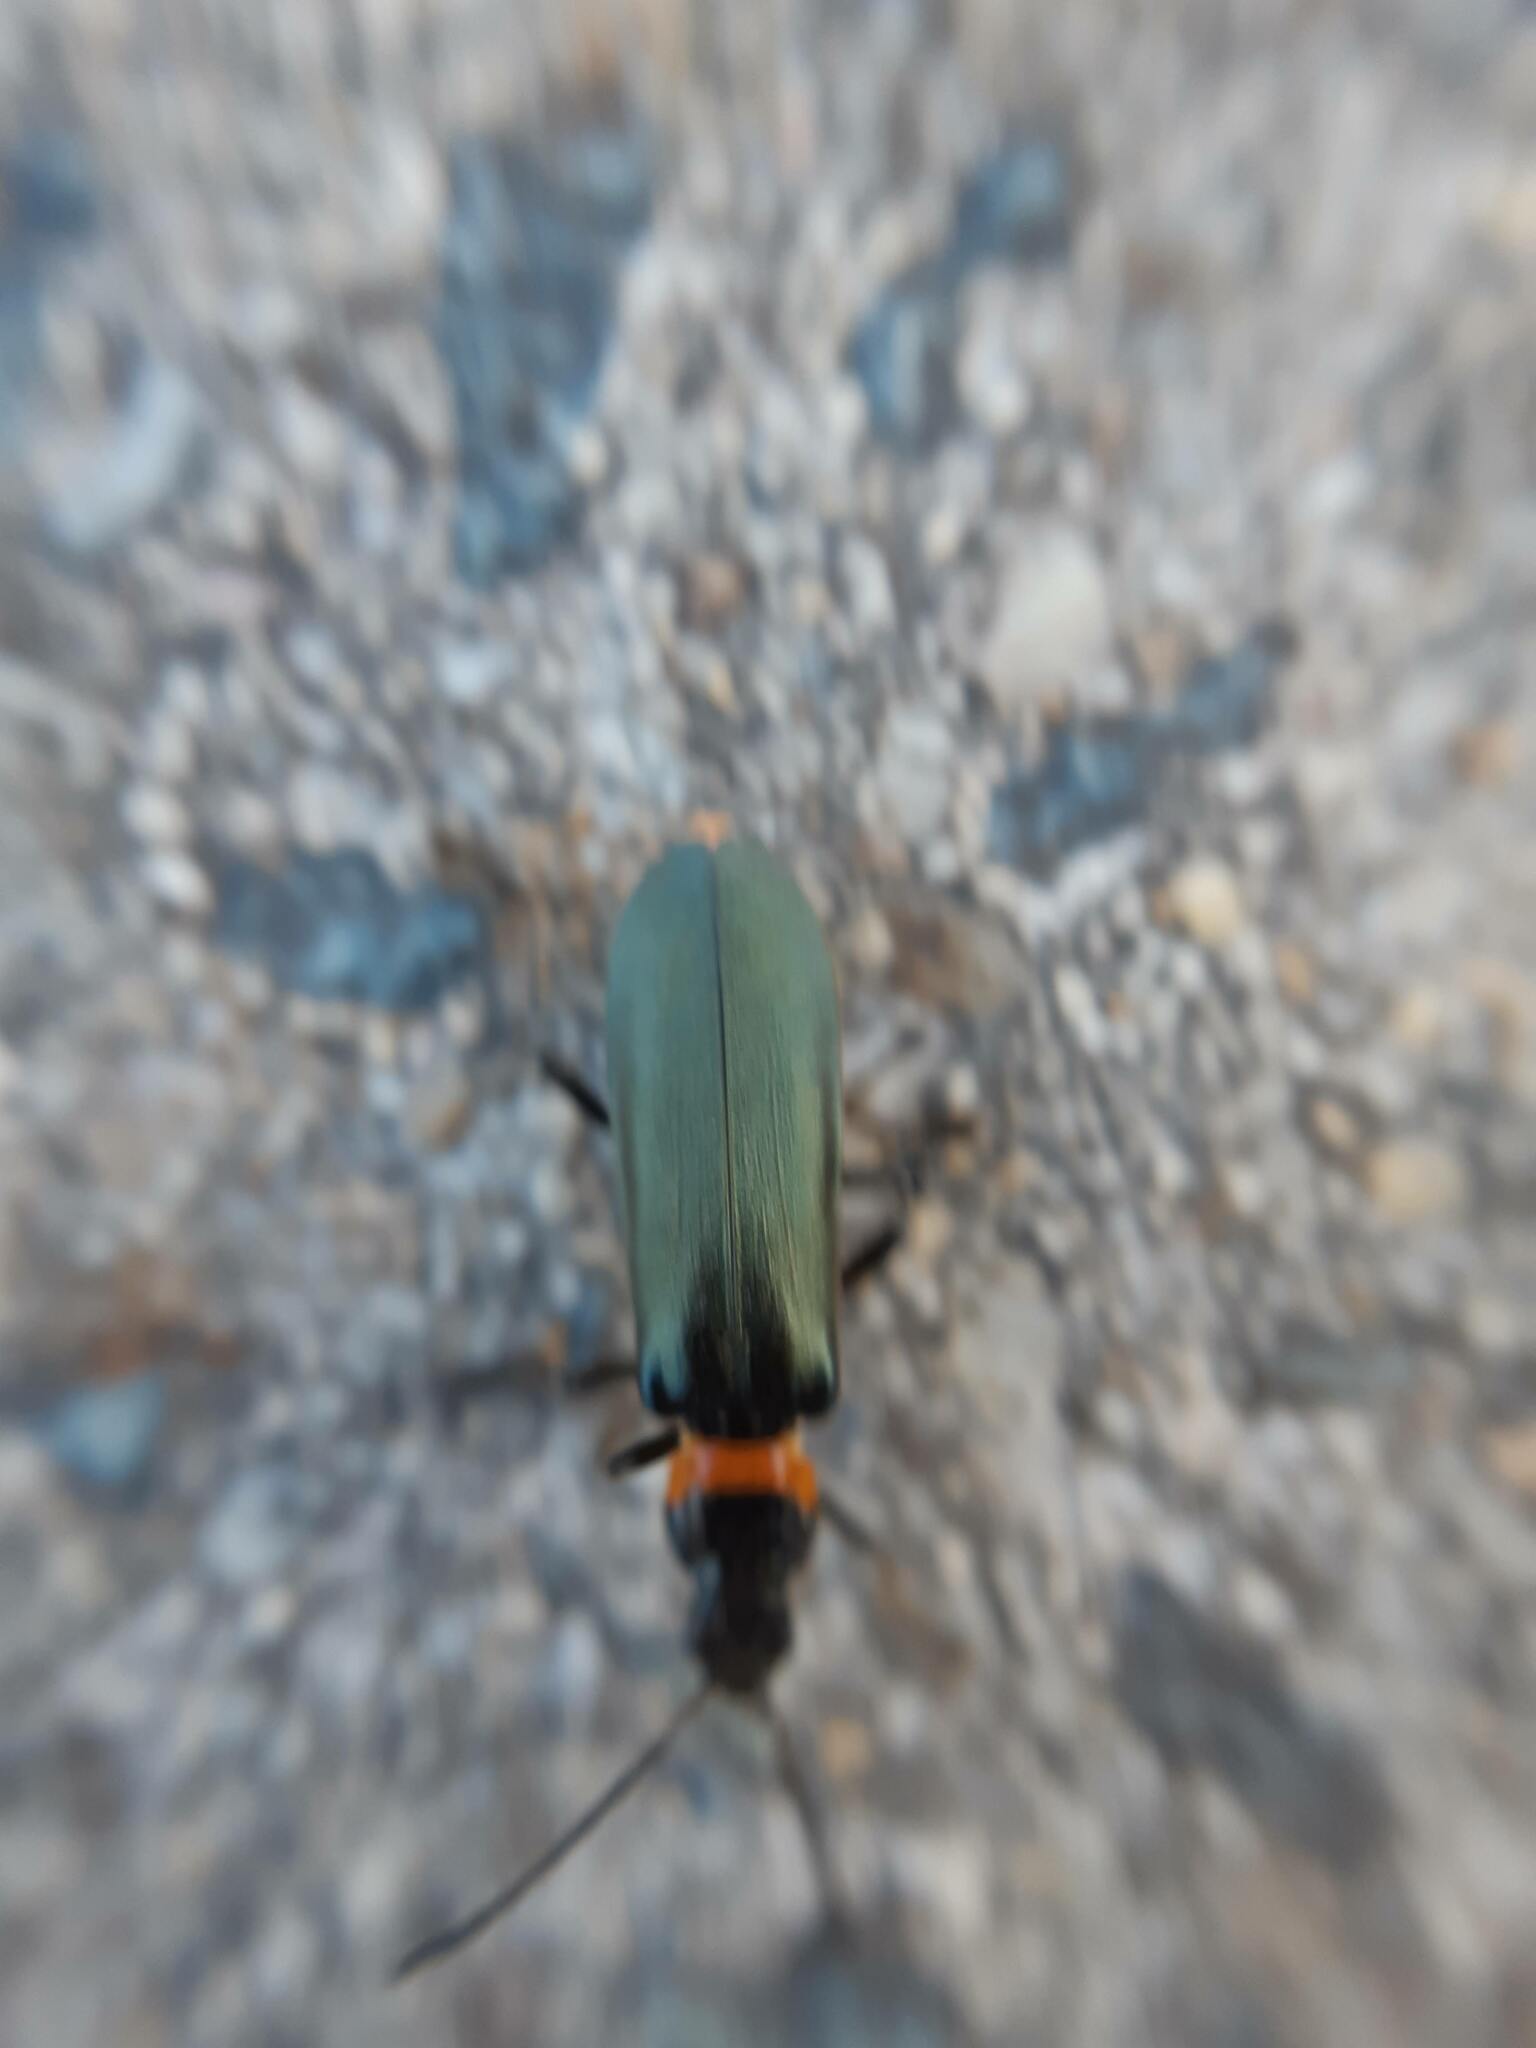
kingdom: Animalia
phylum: Arthropoda
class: Insecta
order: Coleoptera
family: Cantharidae
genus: Chauliognathus
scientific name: Chauliognathus
